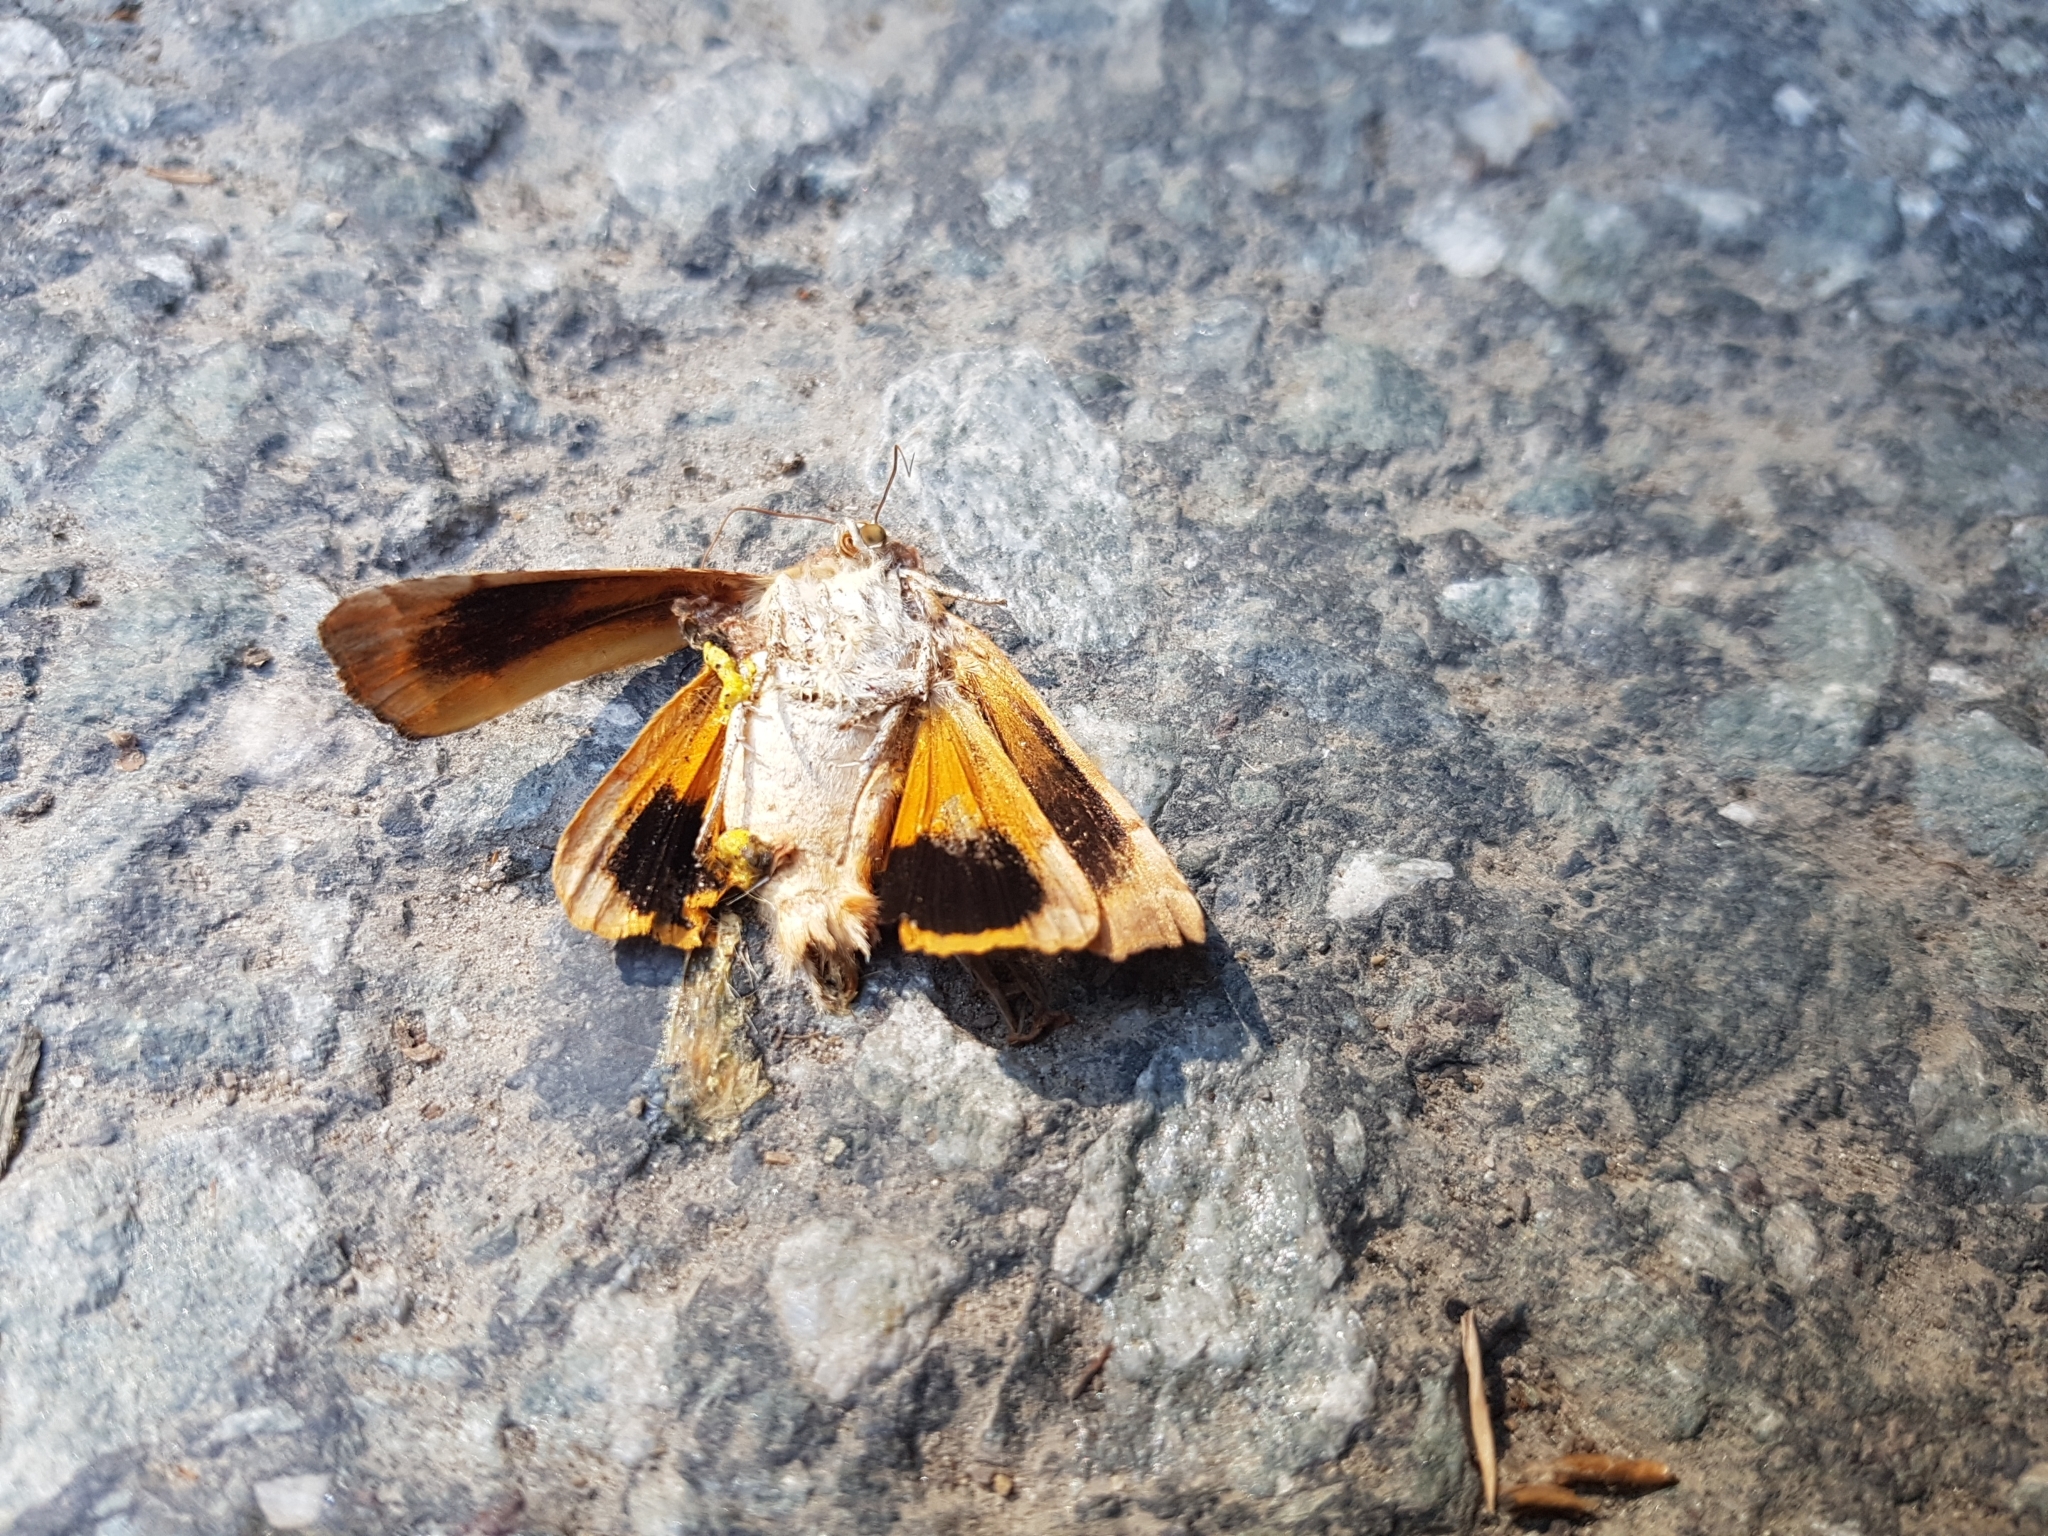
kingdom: Animalia
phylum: Arthropoda
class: Insecta
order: Lepidoptera
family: Noctuidae
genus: Noctua
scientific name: Noctua fimbriata
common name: Broad-bordered yellow underwing
